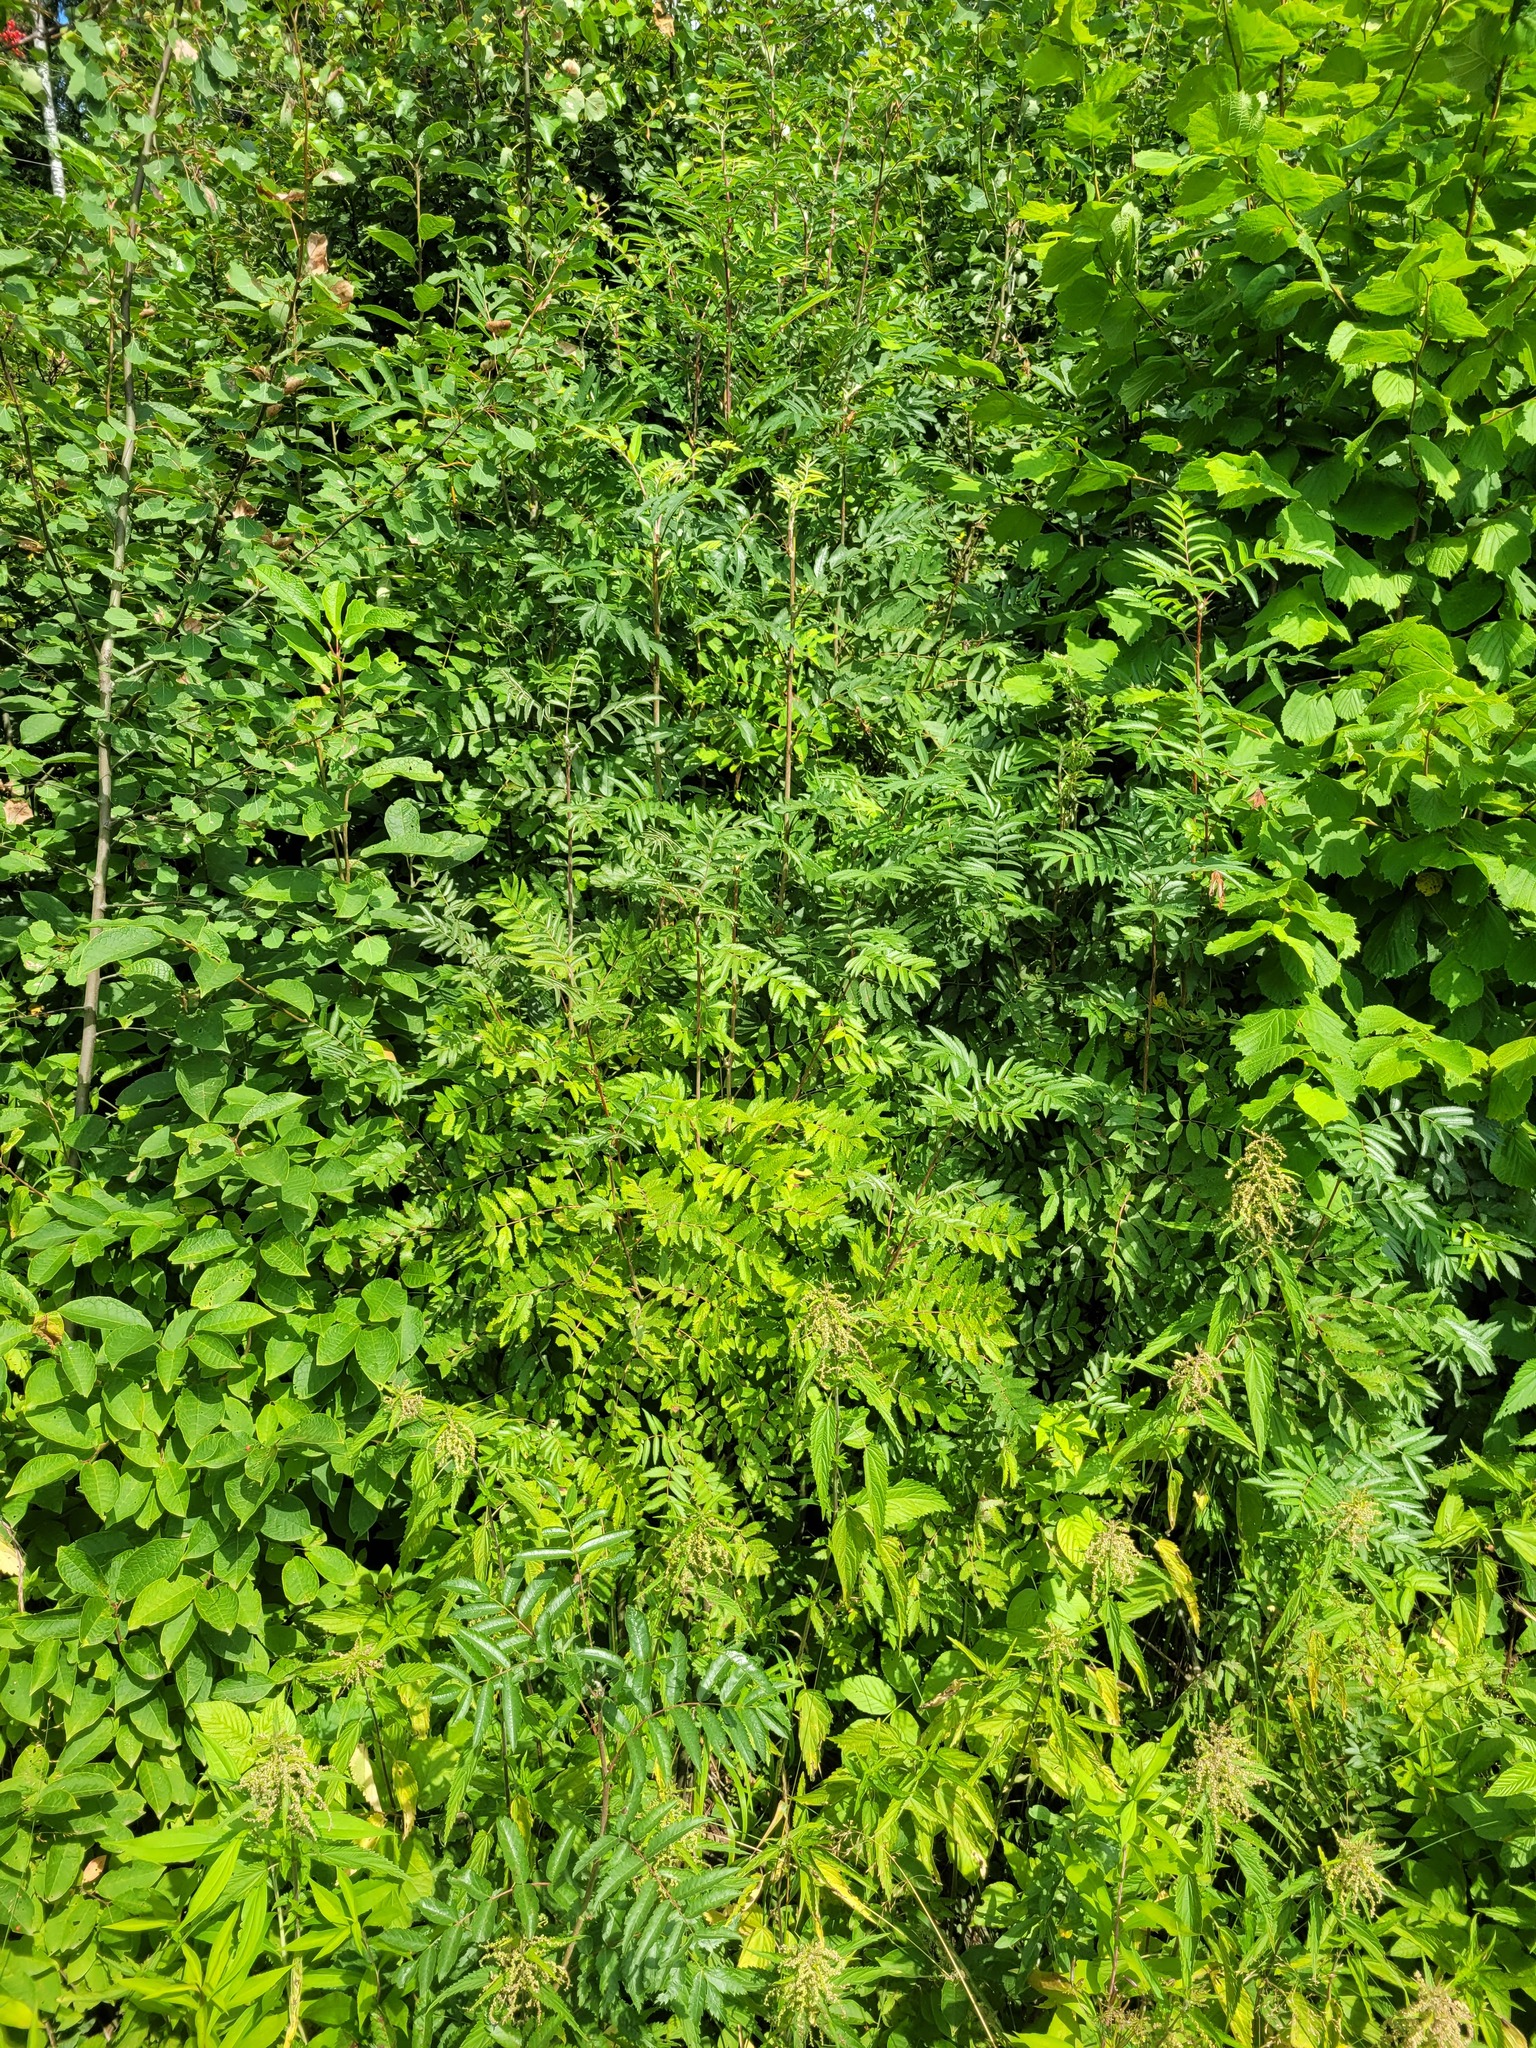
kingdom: Plantae
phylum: Tracheophyta
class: Magnoliopsida
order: Rosales
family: Rosaceae
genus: Sorbus
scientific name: Sorbus aucuparia
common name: Rowan
